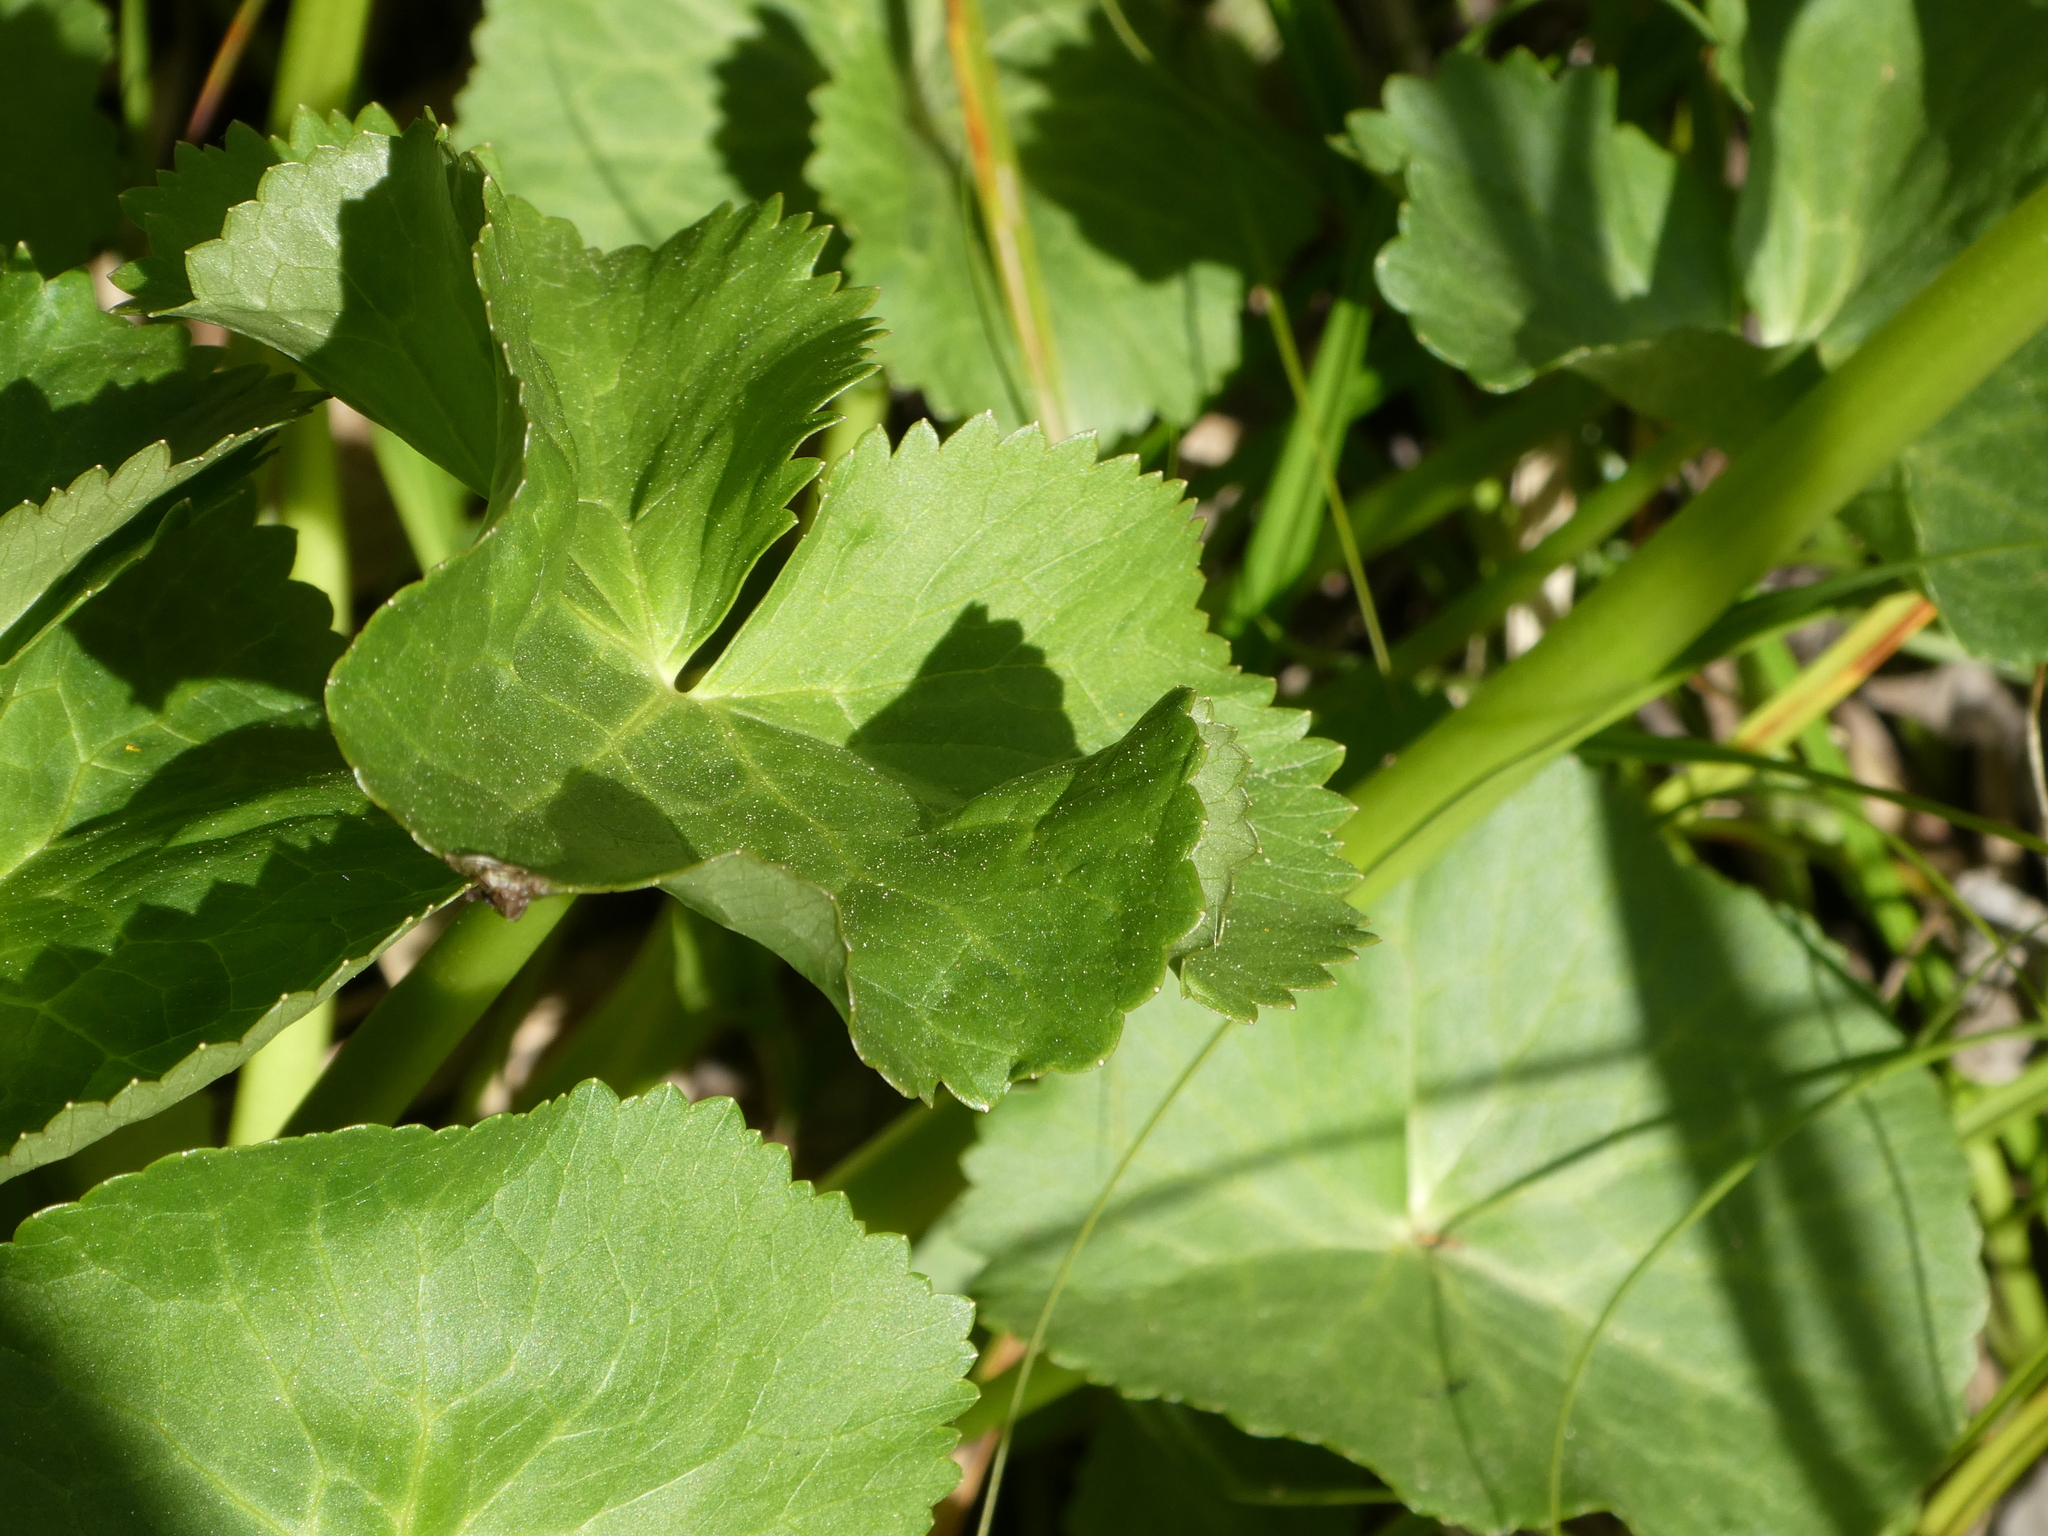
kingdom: Plantae
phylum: Tracheophyta
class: Magnoliopsida
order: Ranunculales
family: Ranunculaceae
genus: Caltha
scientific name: Caltha palustris
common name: Marsh marigold
